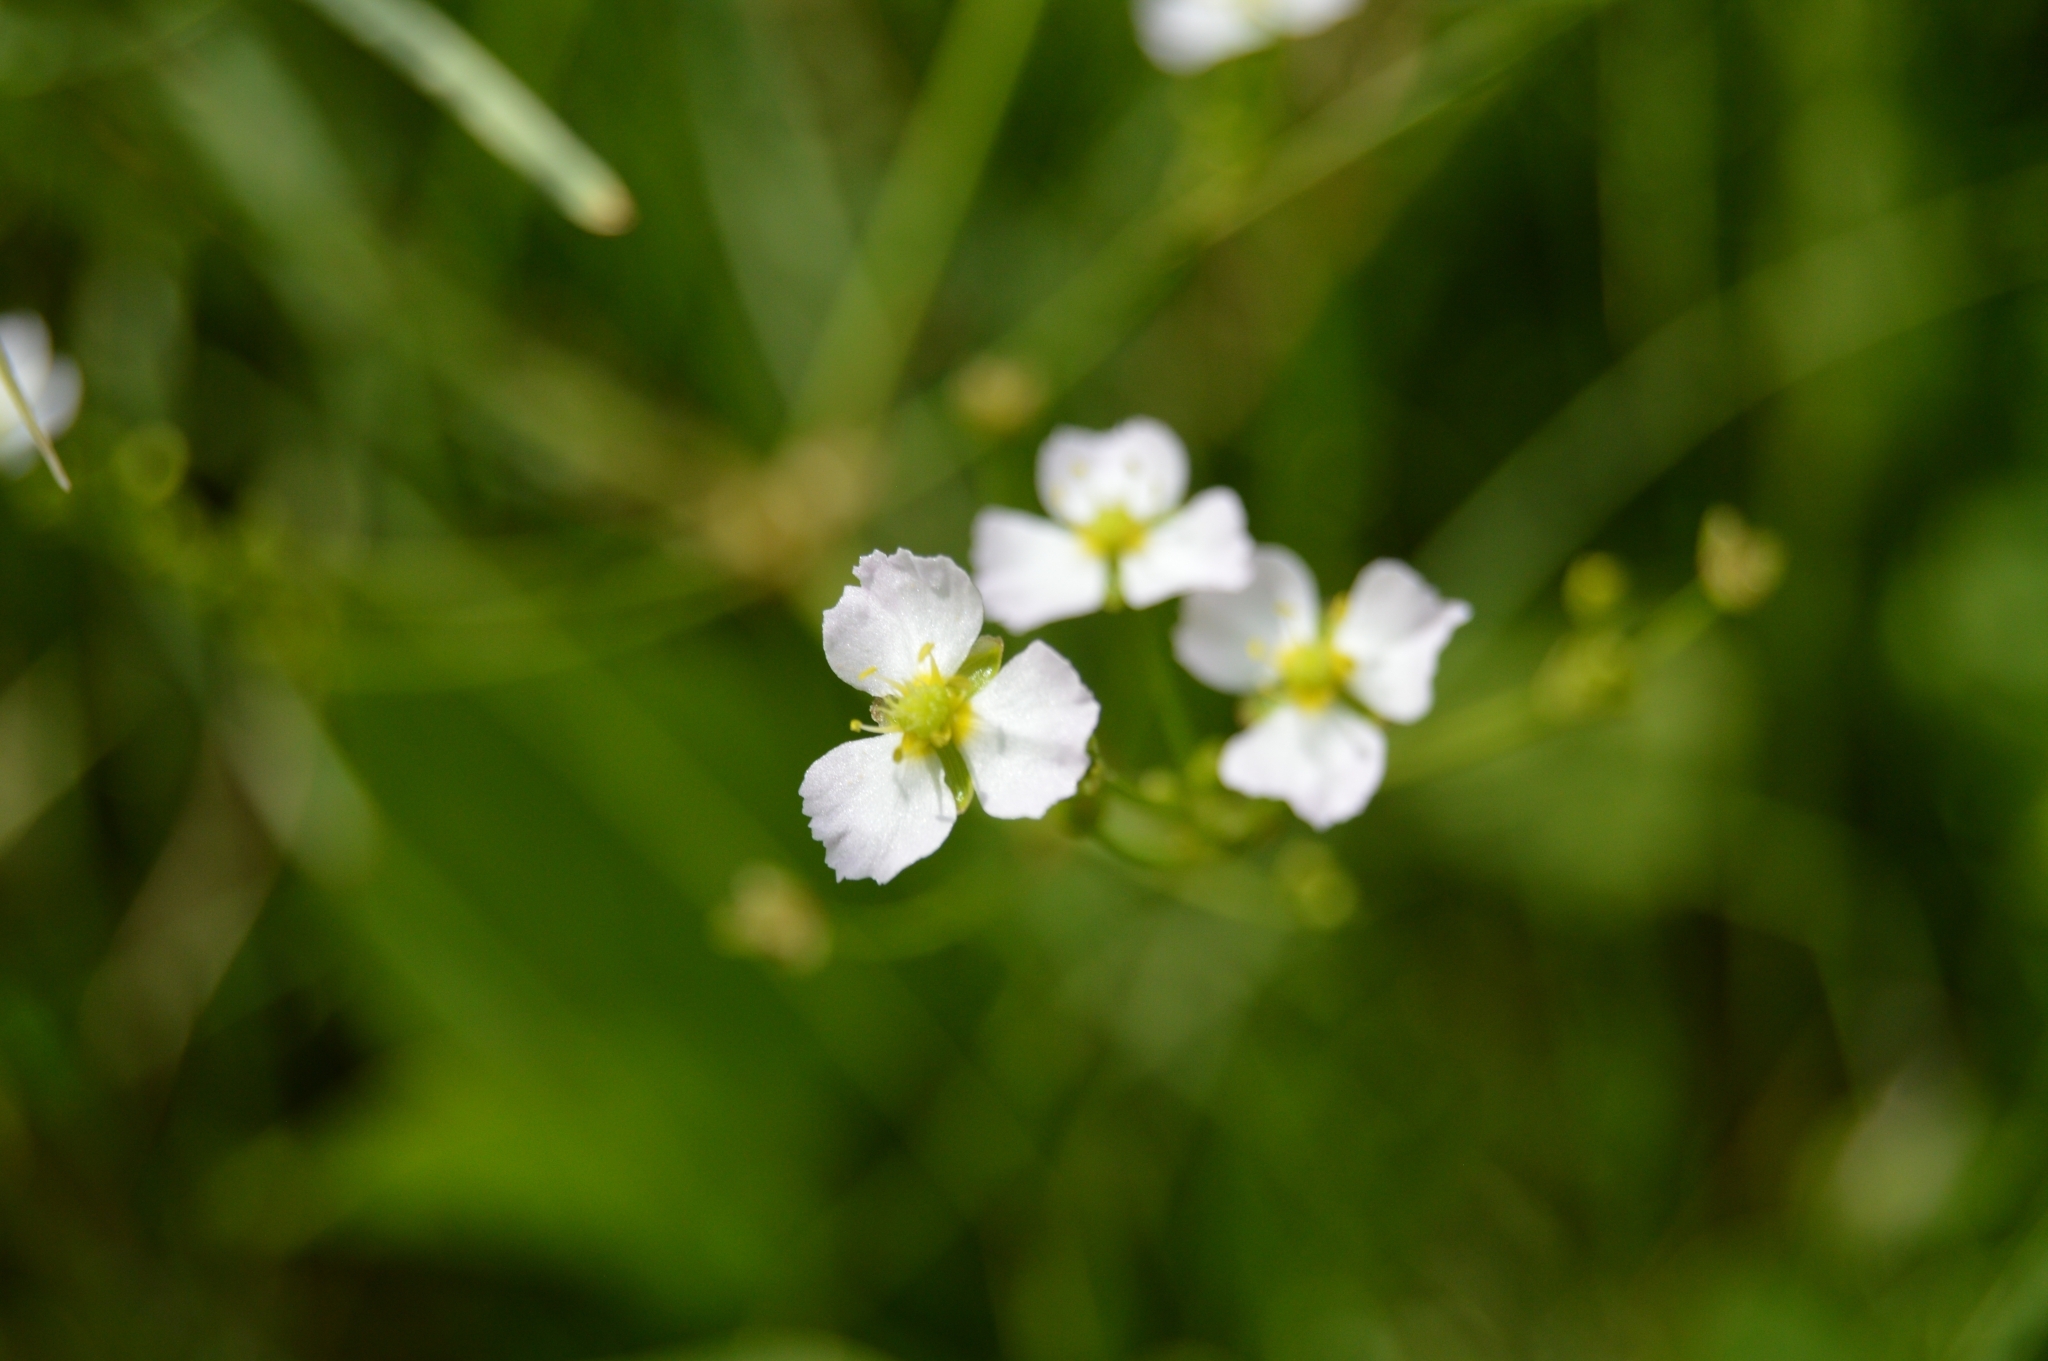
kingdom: Plantae
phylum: Tracheophyta
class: Liliopsida
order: Alismatales
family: Alismataceae
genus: Alisma
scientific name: Alisma plantago-aquatica
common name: Water-plantain
